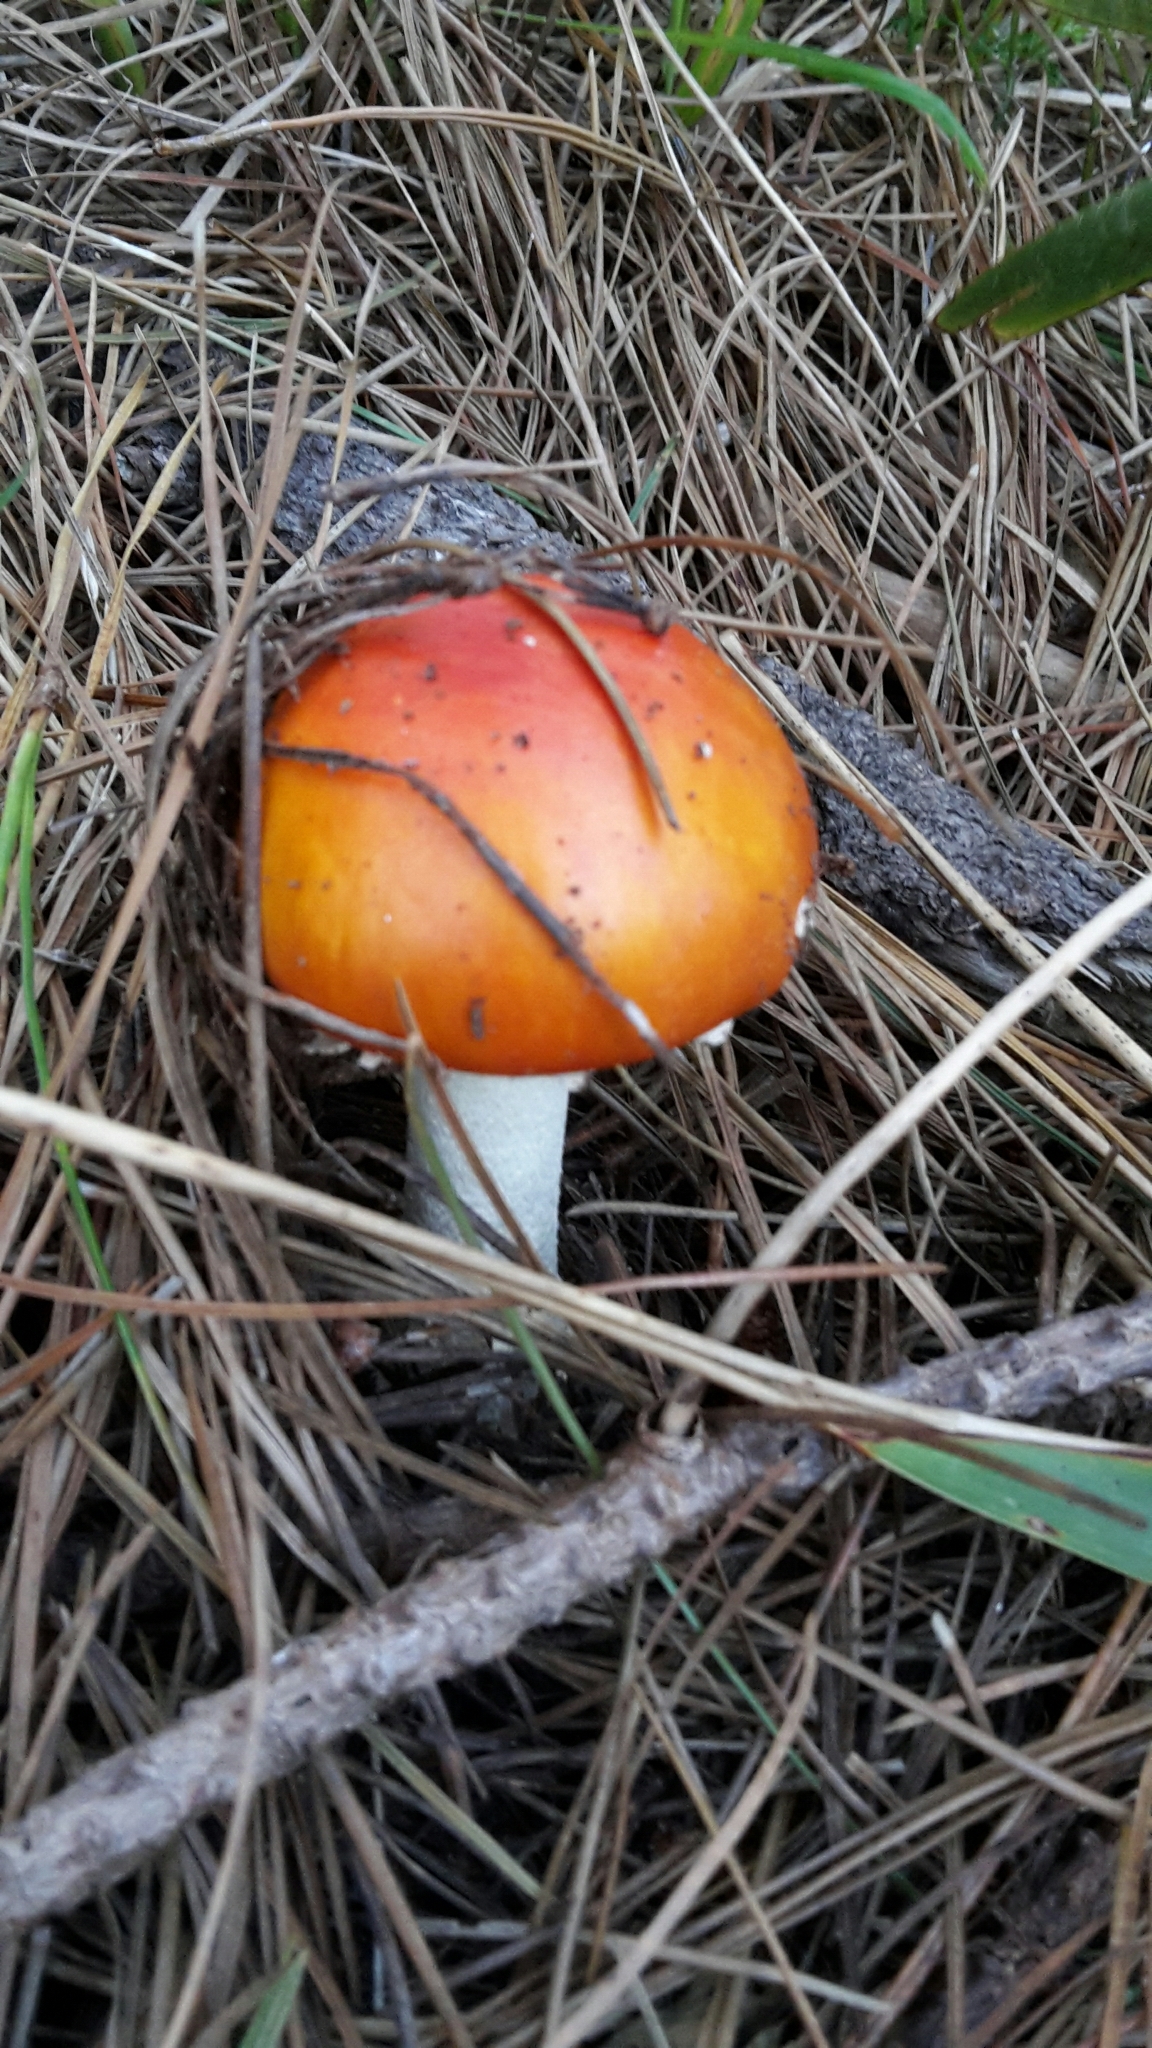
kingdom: Fungi
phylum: Basidiomycota
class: Agaricomycetes
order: Agaricales
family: Amanitaceae
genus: Amanita
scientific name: Amanita muscaria
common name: Fly agaric
